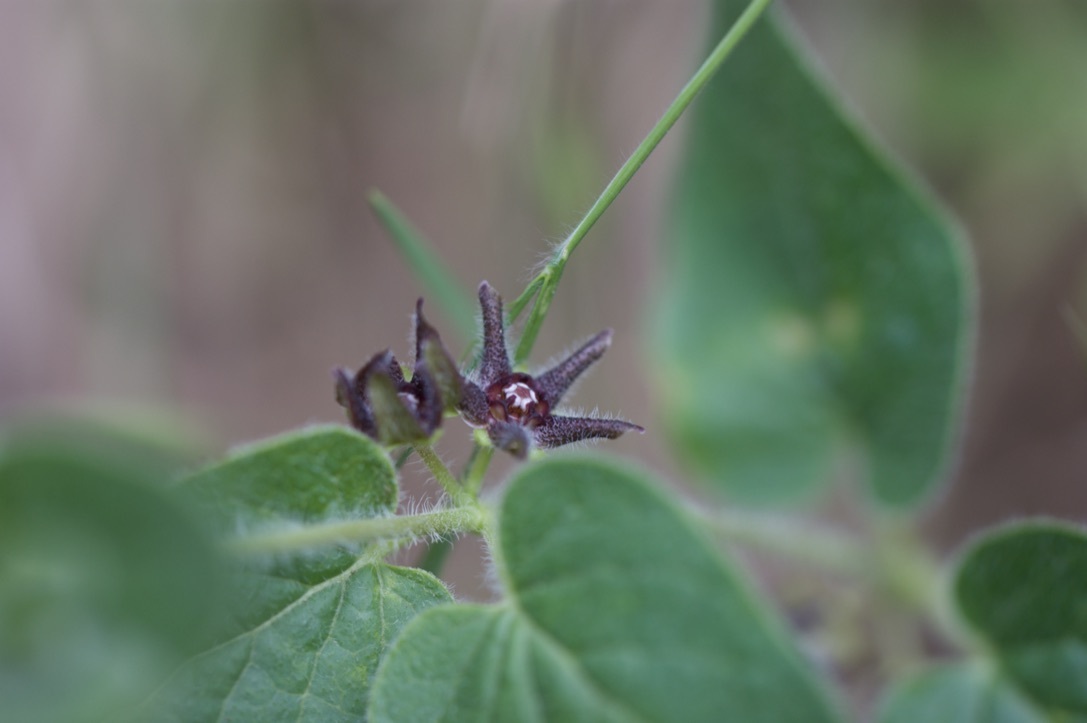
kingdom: Plantae
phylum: Tracheophyta
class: Magnoliopsida
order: Gentianales
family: Apocynaceae
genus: Chthamalia
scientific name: Chthamalia biflora
